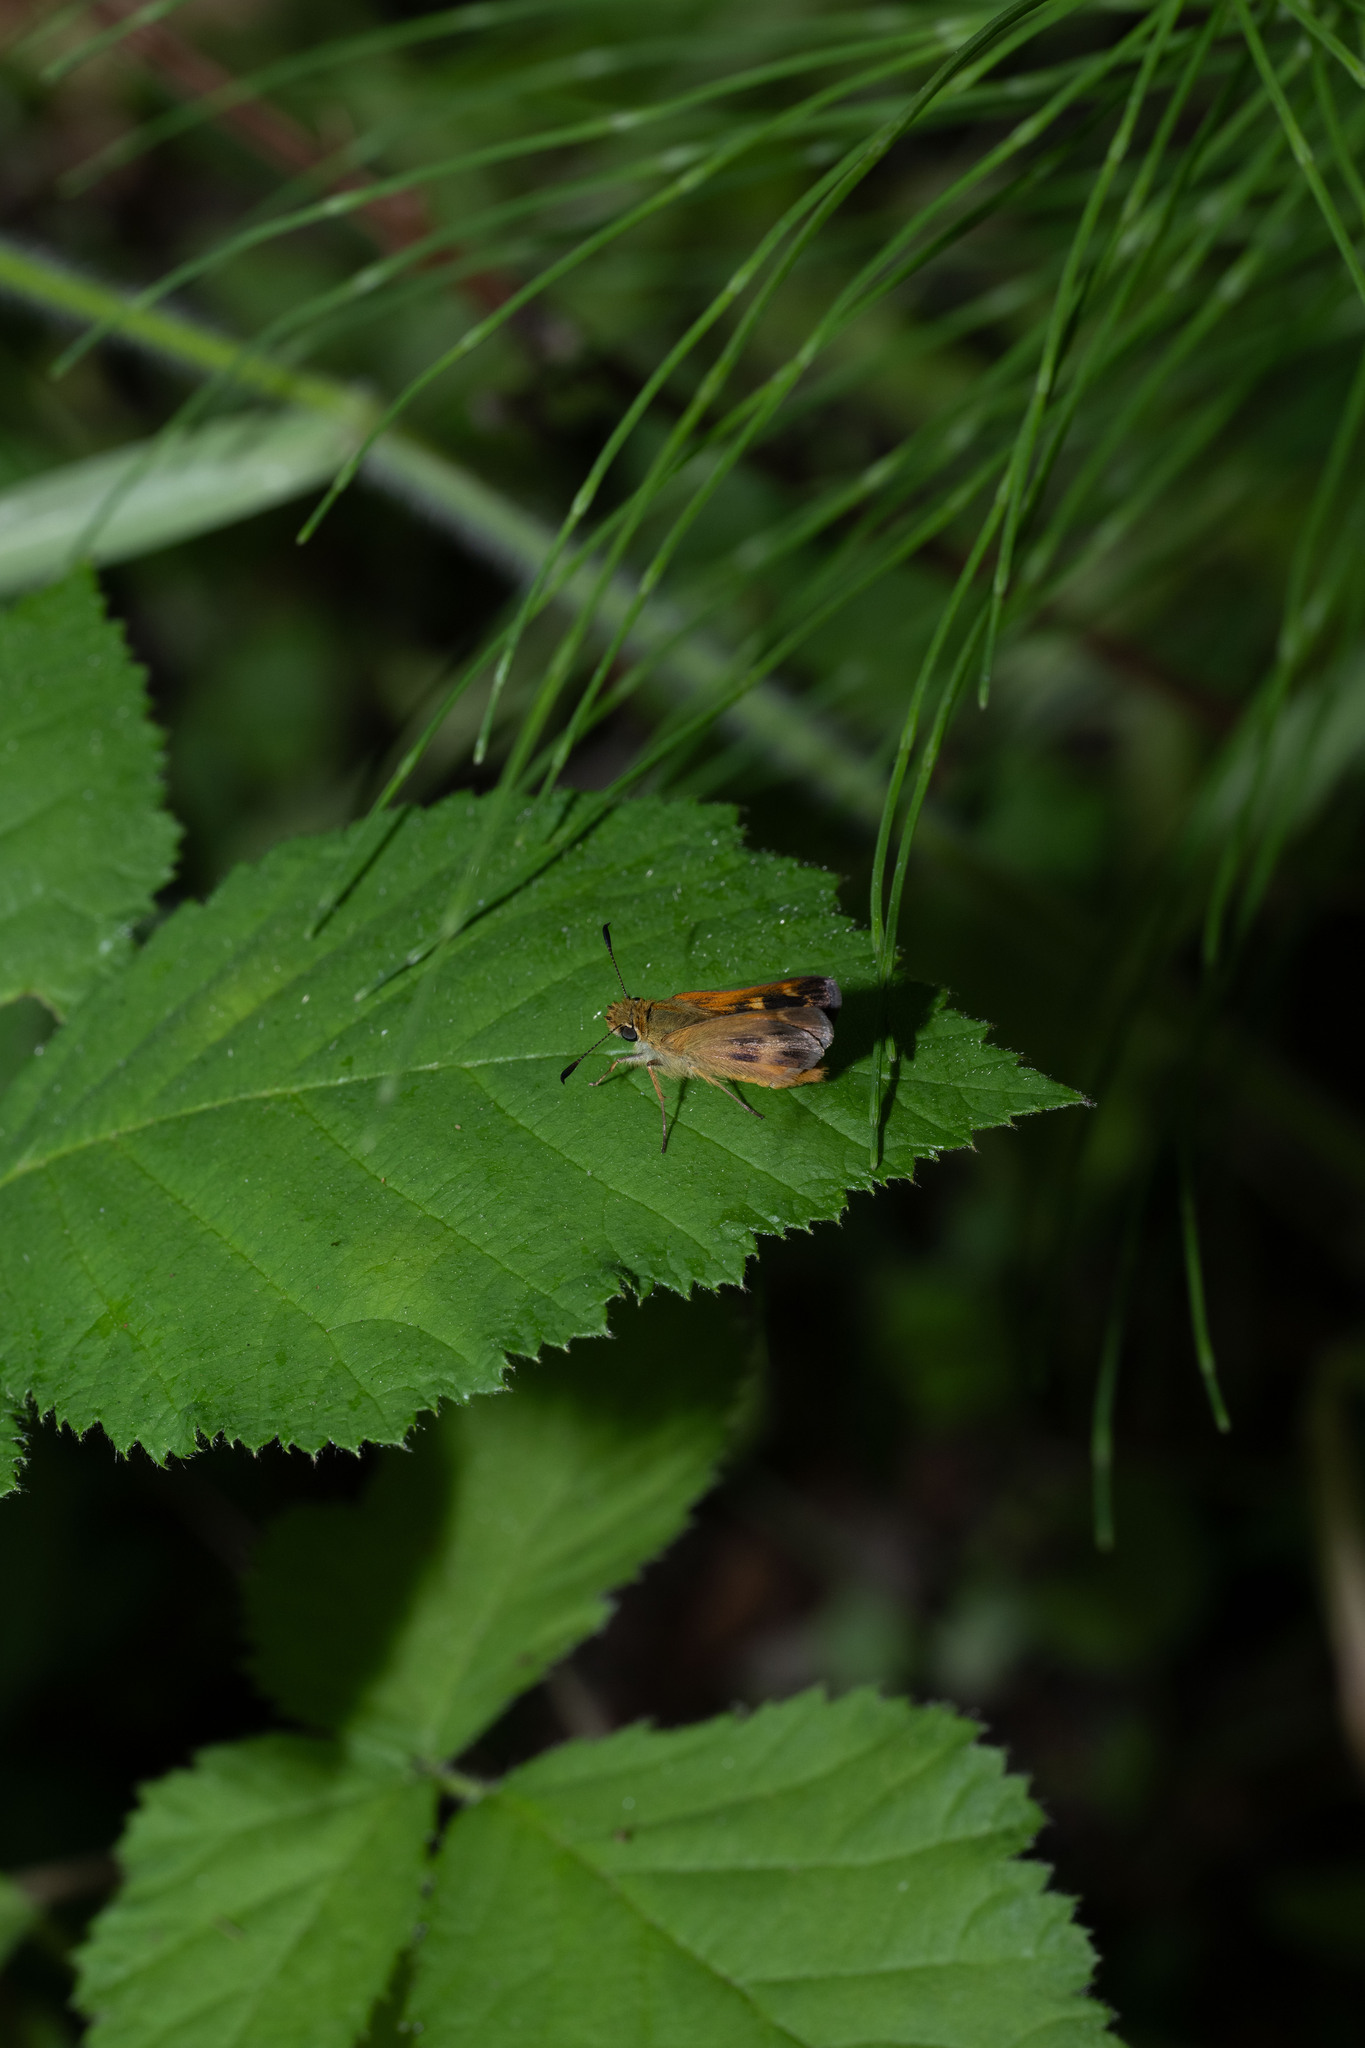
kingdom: Animalia
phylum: Arthropoda
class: Insecta
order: Lepidoptera
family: Hesperiidae
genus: Ochlodes
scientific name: Ochlodes agricola
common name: Rural skipper
